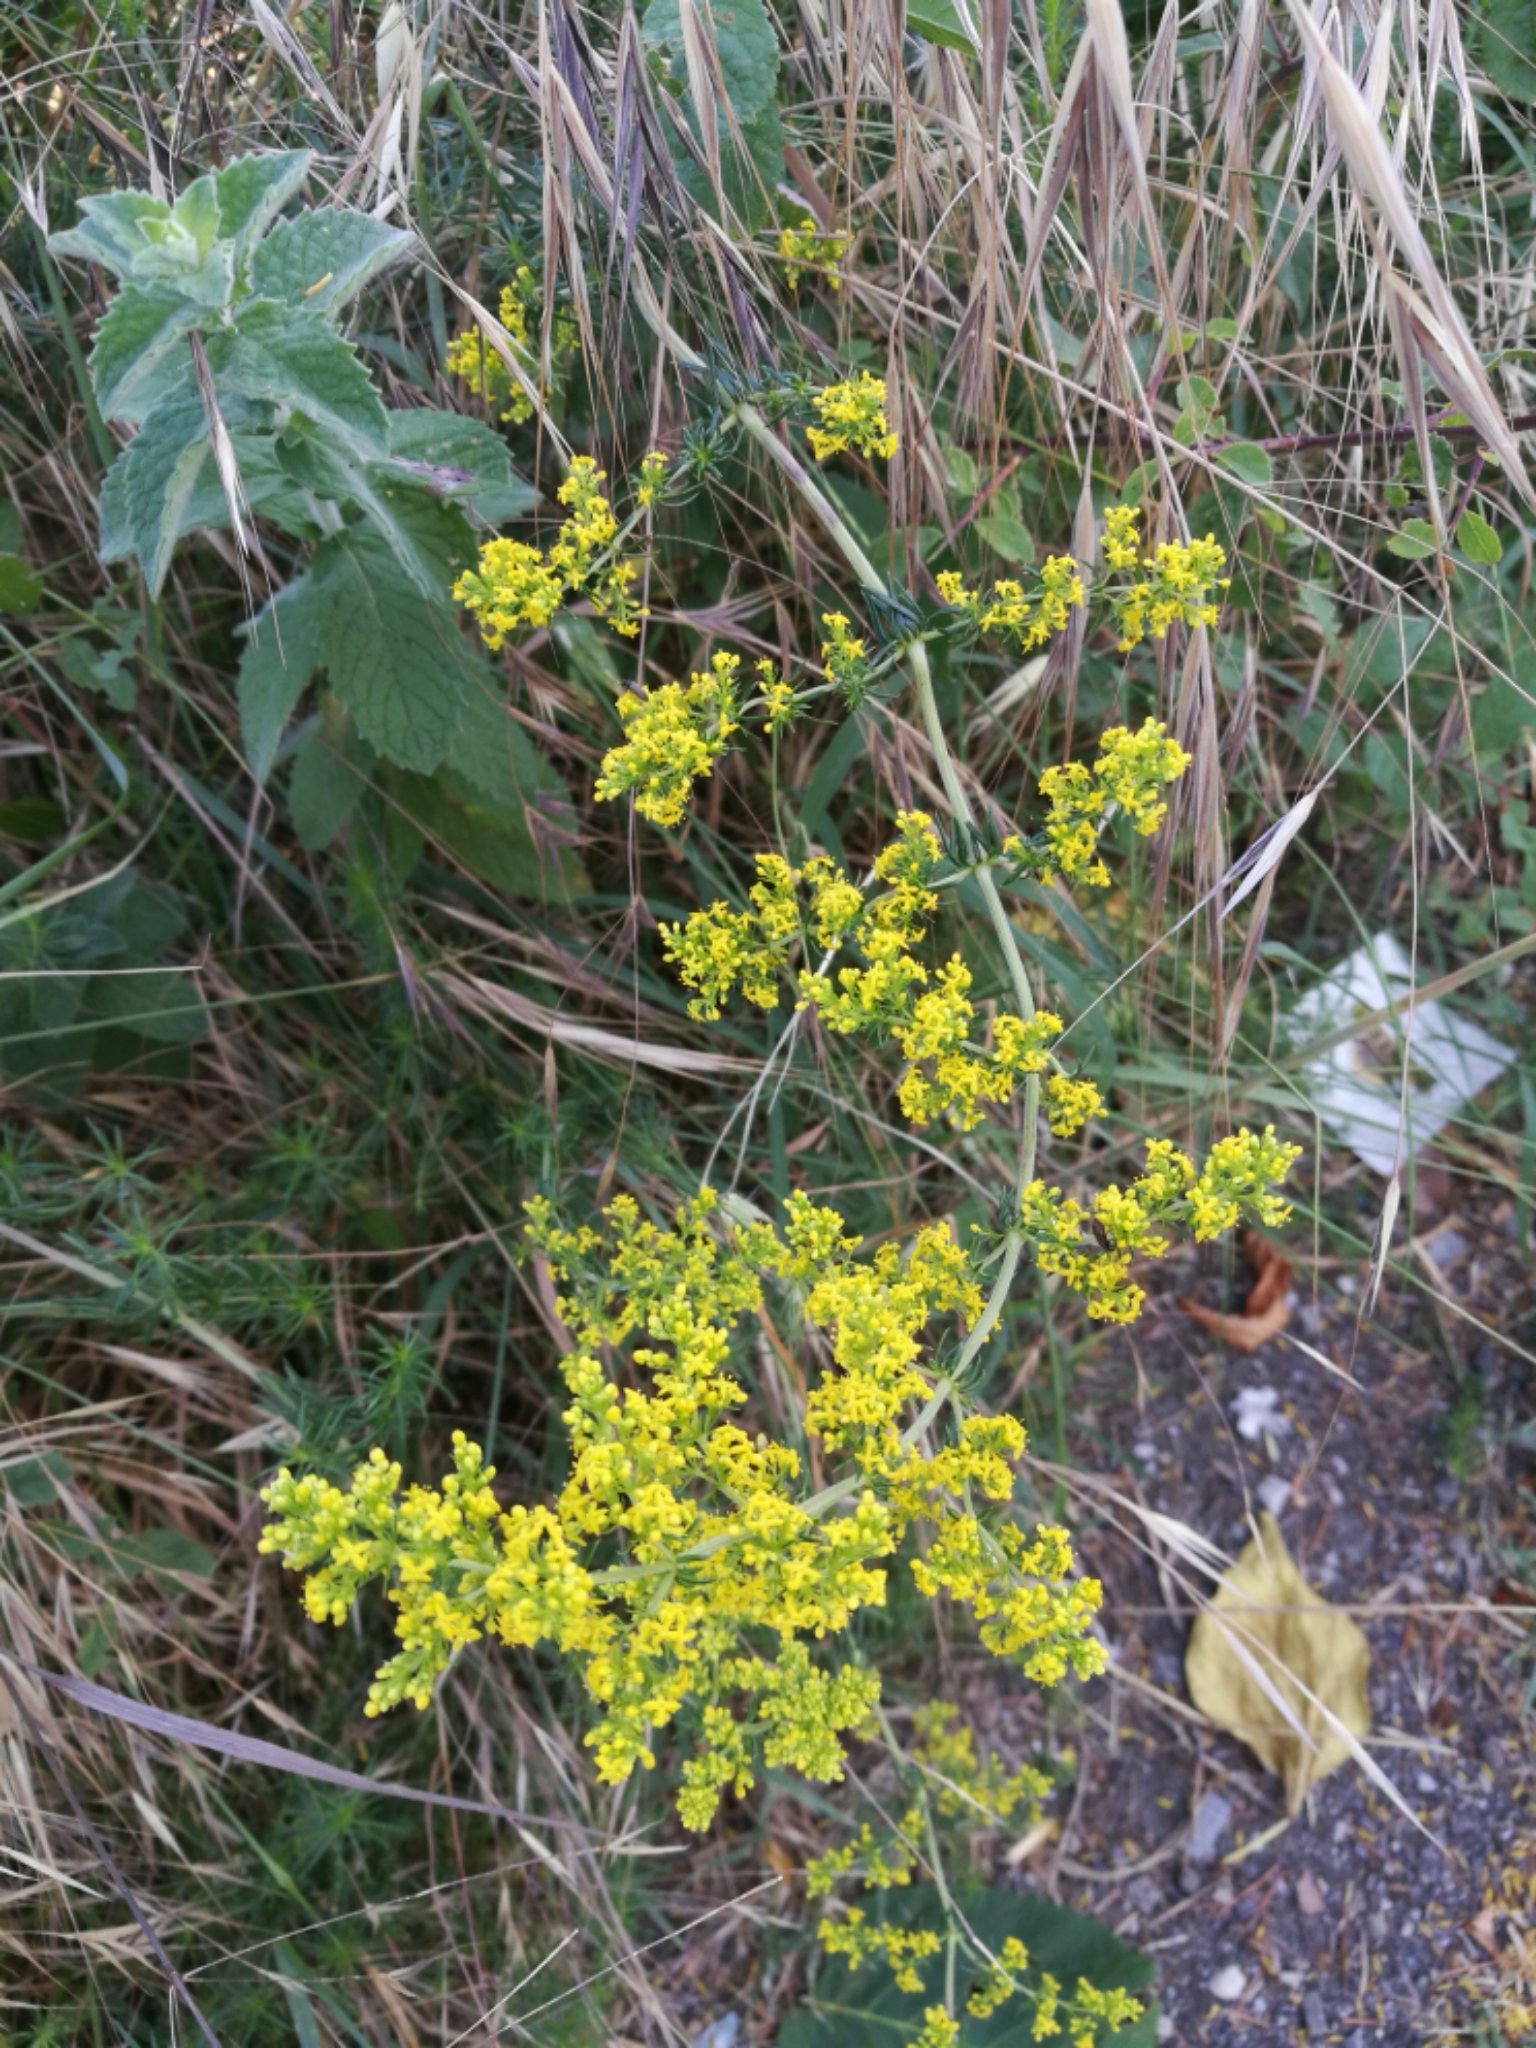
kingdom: Plantae
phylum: Tracheophyta
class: Magnoliopsida
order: Gentianales
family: Rubiaceae
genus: Galium
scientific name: Galium verum
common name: Lady's bedstraw
